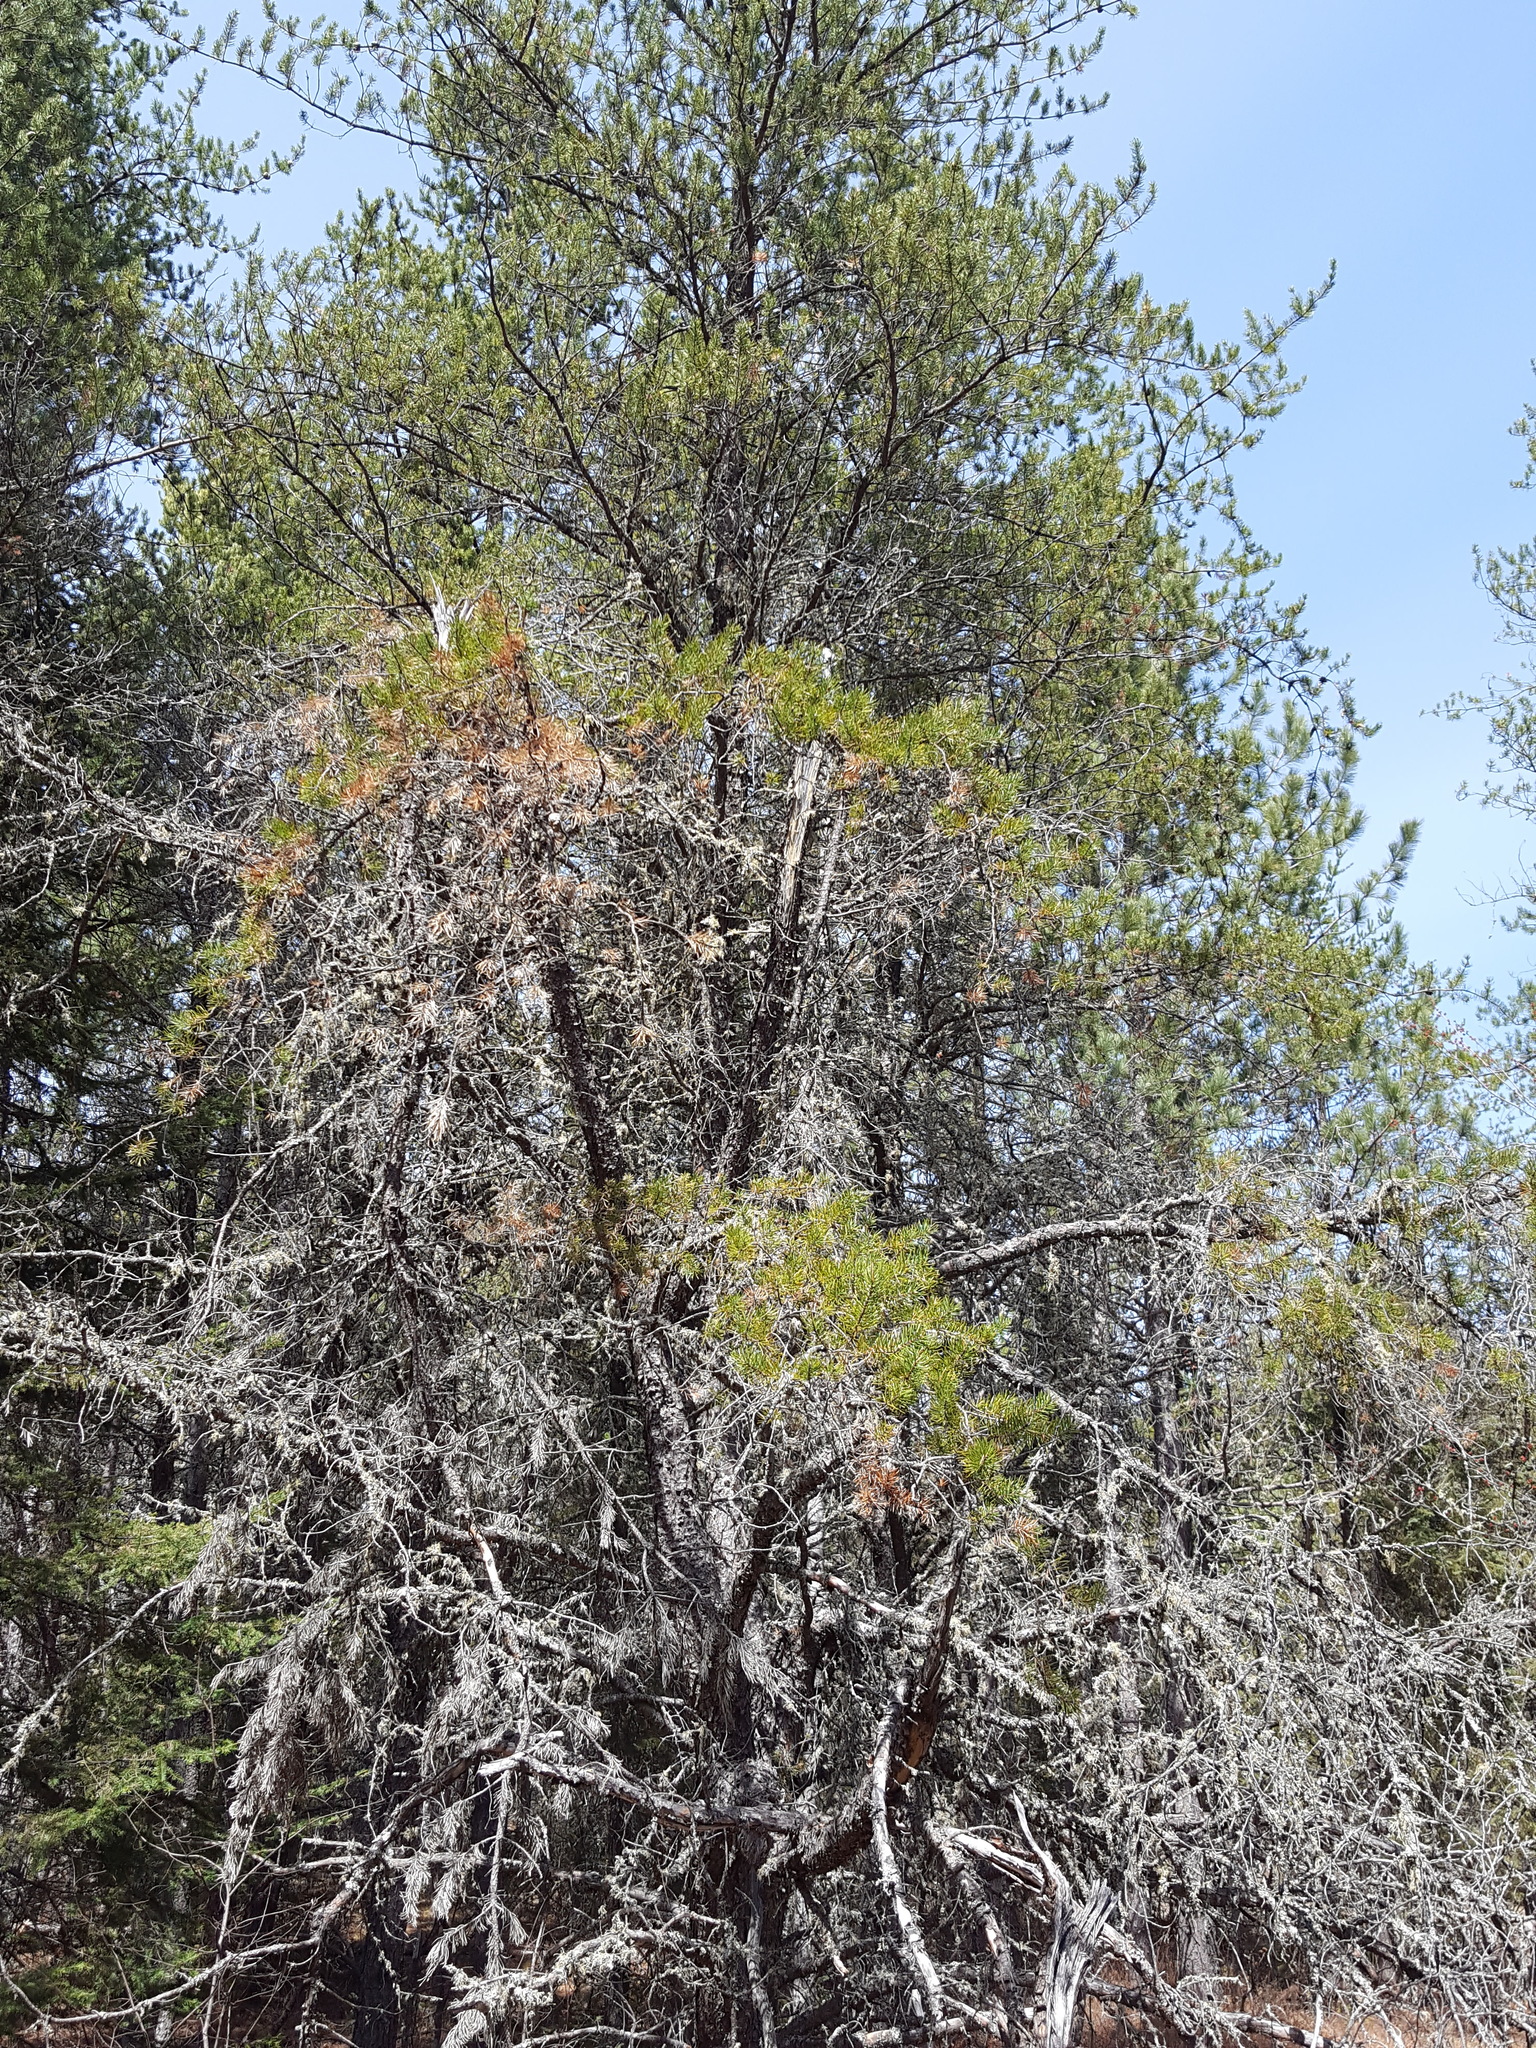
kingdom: Plantae
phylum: Tracheophyta
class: Pinopsida
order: Pinales
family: Pinaceae
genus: Pinus
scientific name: Pinus banksiana
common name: Jack pine
